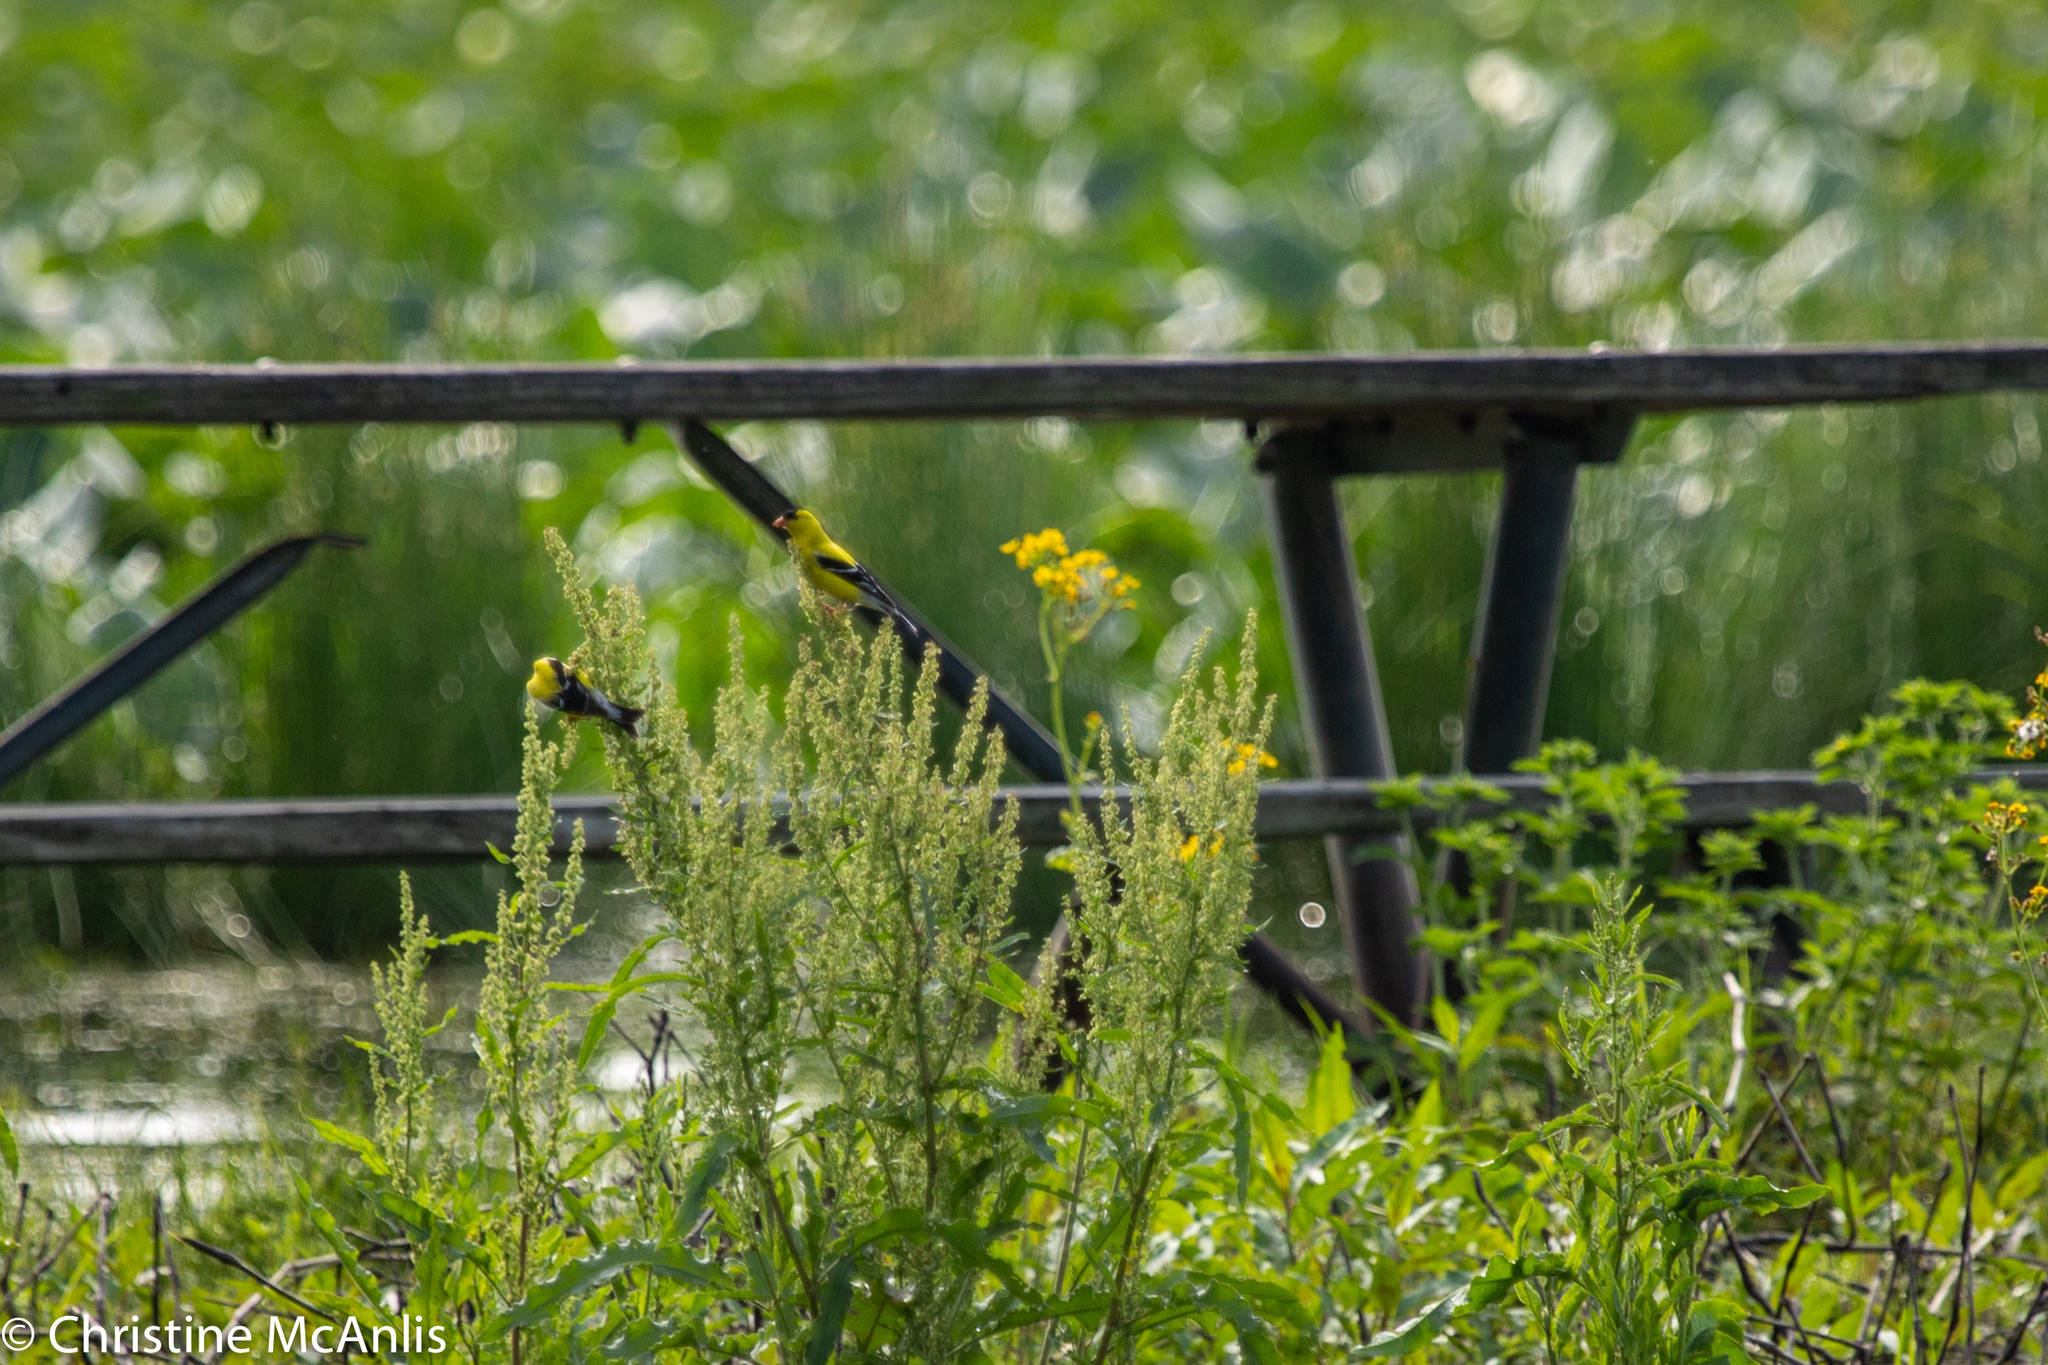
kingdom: Animalia
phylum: Chordata
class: Aves
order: Passeriformes
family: Fringillidae
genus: Spinus
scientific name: Spinus tristis
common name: American goldfinch
